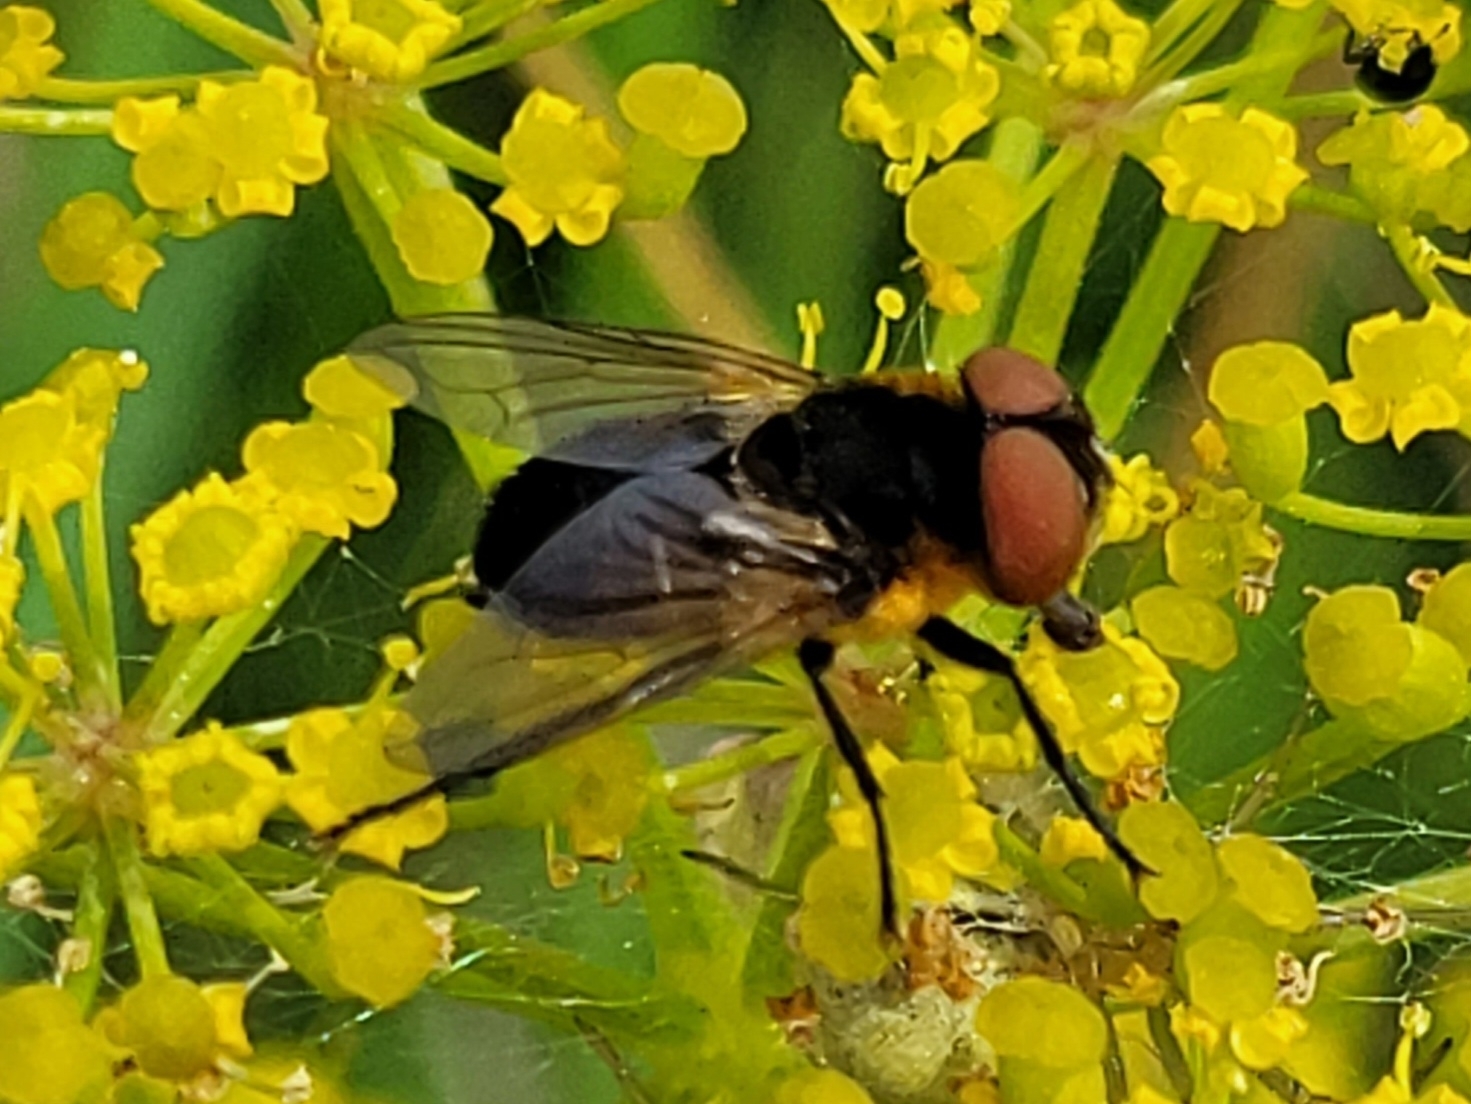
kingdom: Animalia
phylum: Arthropoda
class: Insecta
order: Diptera
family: Tachinidae
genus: Phasia
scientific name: Phasia hemiptera
